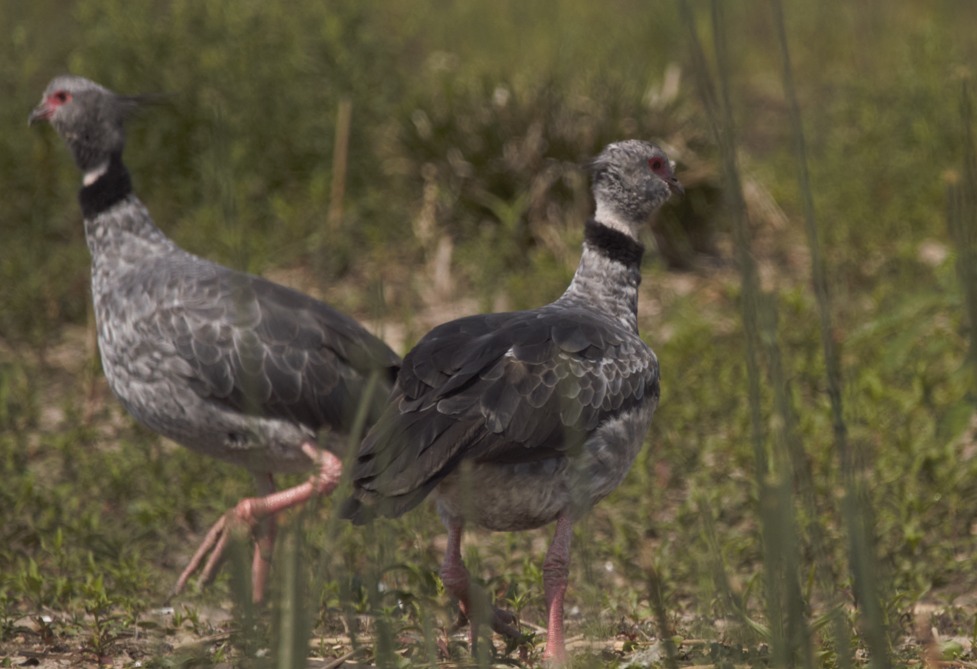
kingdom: Animalia
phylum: Chordata
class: Aves
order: Anseriformes
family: Anhimidae
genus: Chauna
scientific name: Chauna torquata
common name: Southern screamer
